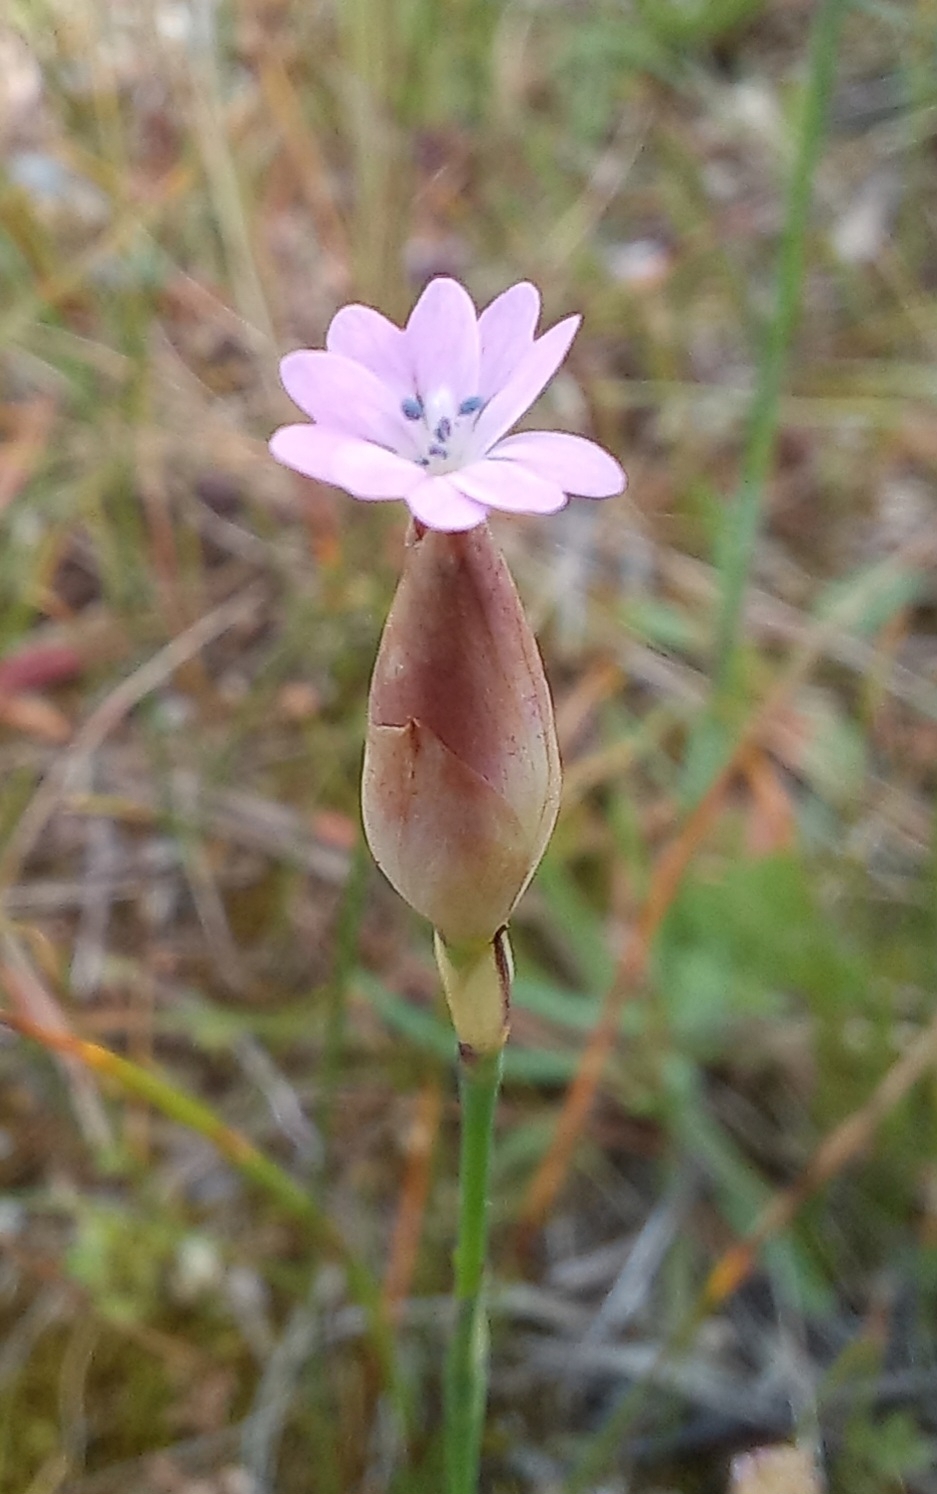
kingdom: Plantae
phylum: Tracheophyta
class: Magnoliopsida
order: Caryophyllales
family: Caryophyllaceae
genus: Petrorhagia
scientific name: Petrorhagia dubia
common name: Hairypink
